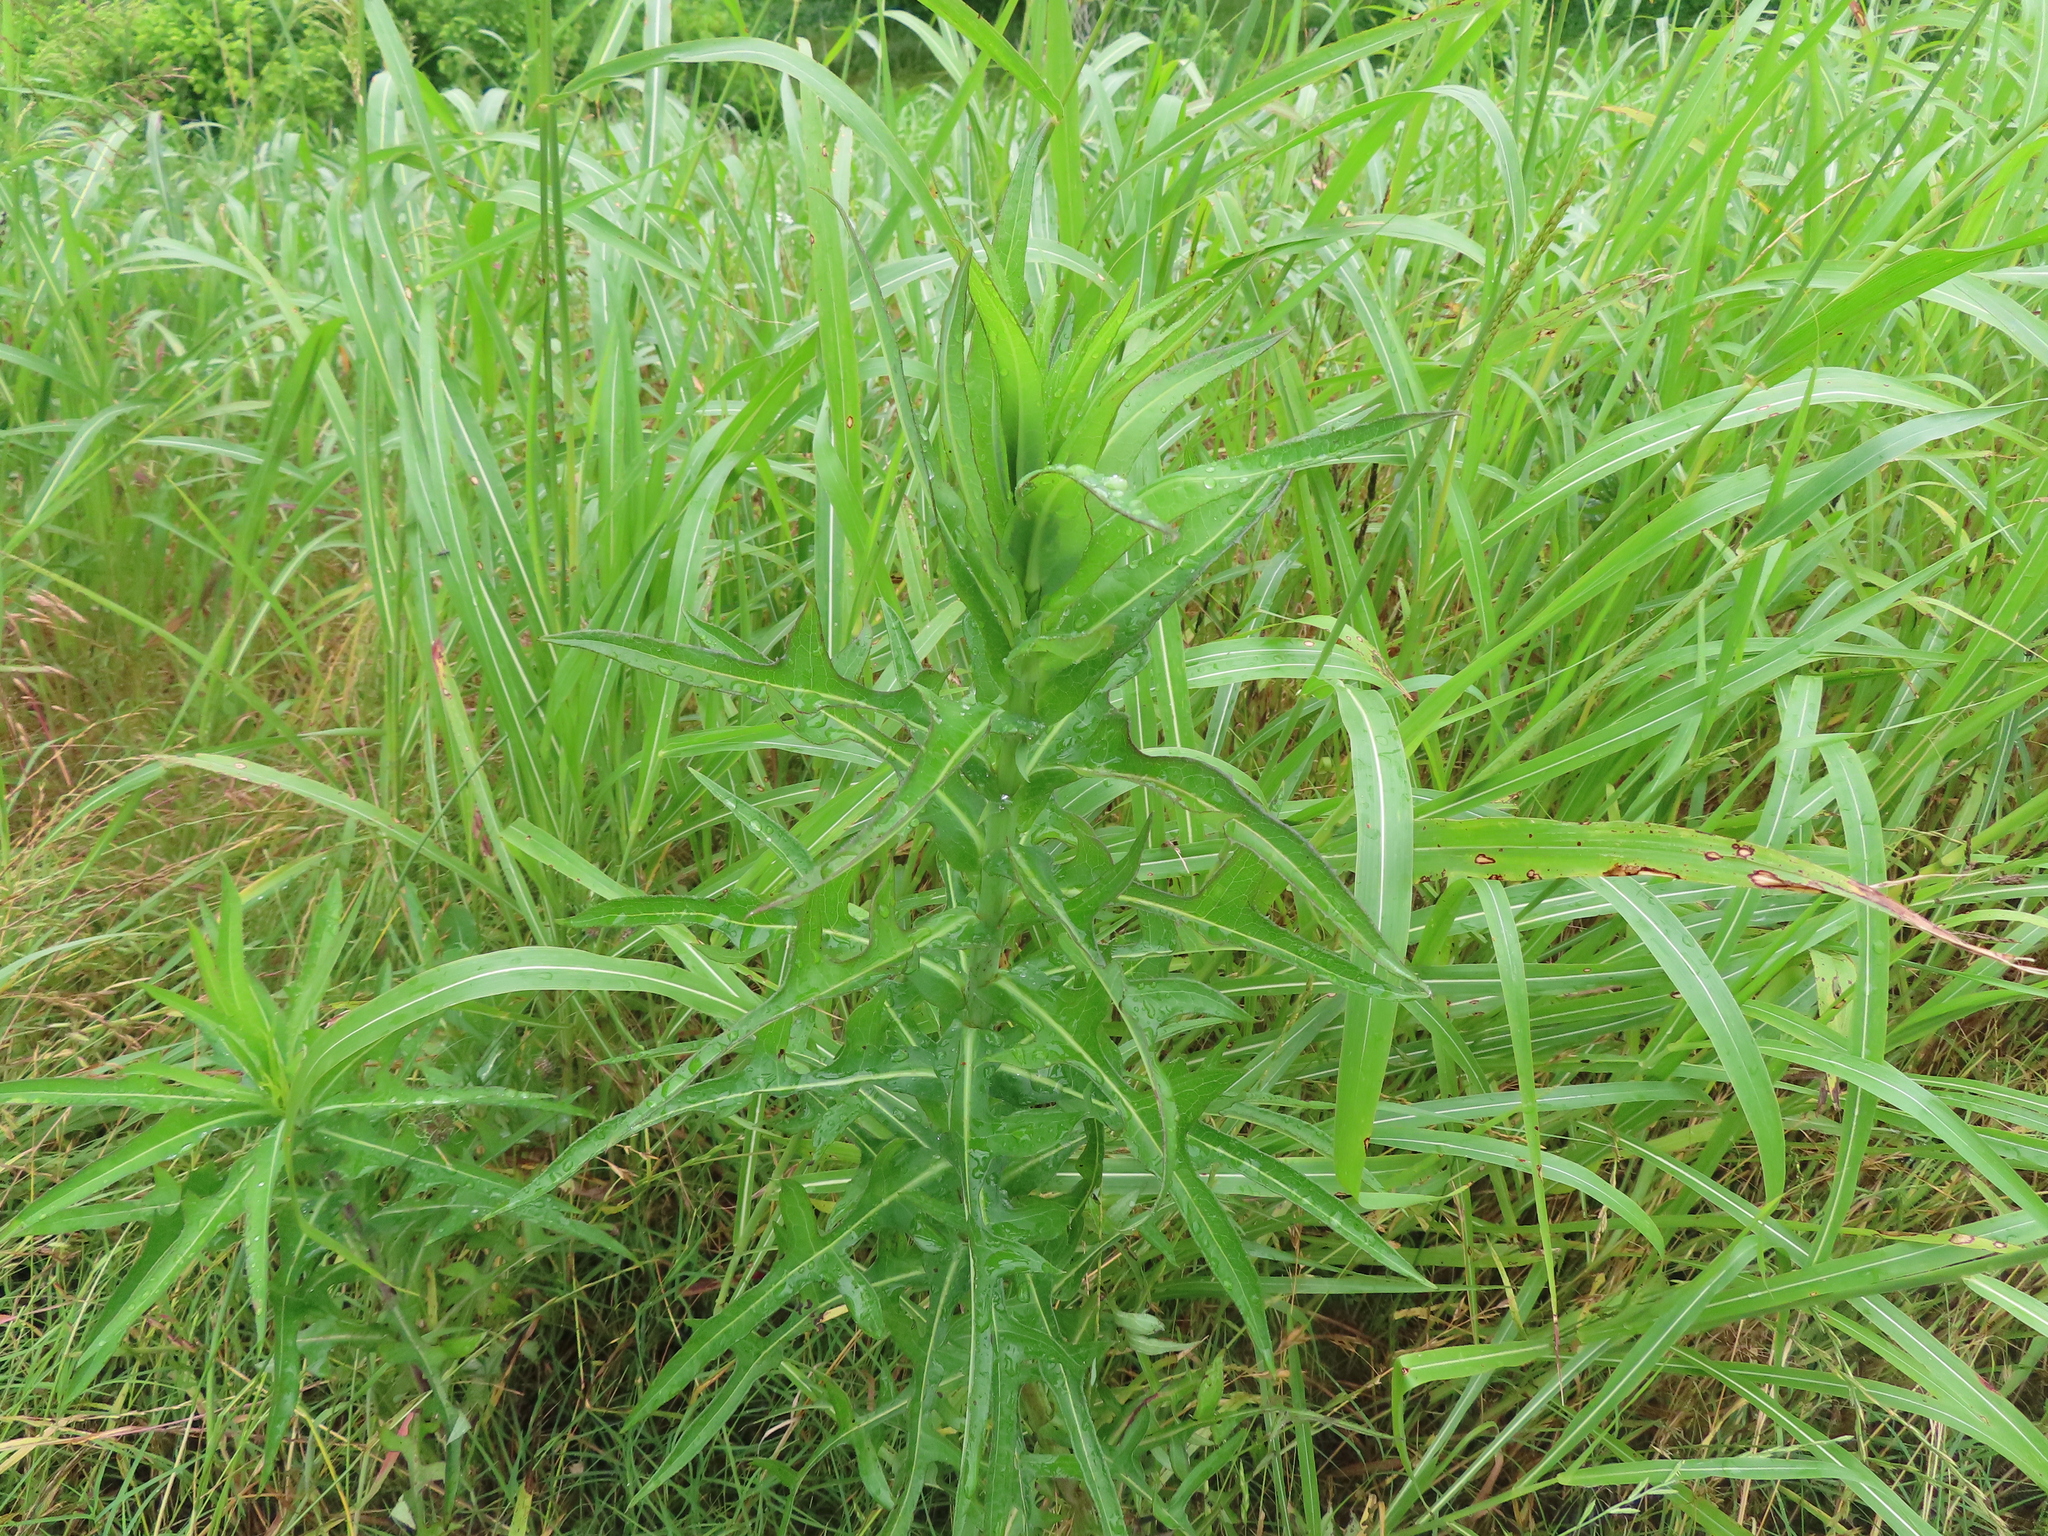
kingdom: Plantae
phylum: Tracheophyta
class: Magnoliopsida
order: Asterales
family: Asteraceae
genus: Lactuca
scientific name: Lactuca canadensis
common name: Canada lettuce
